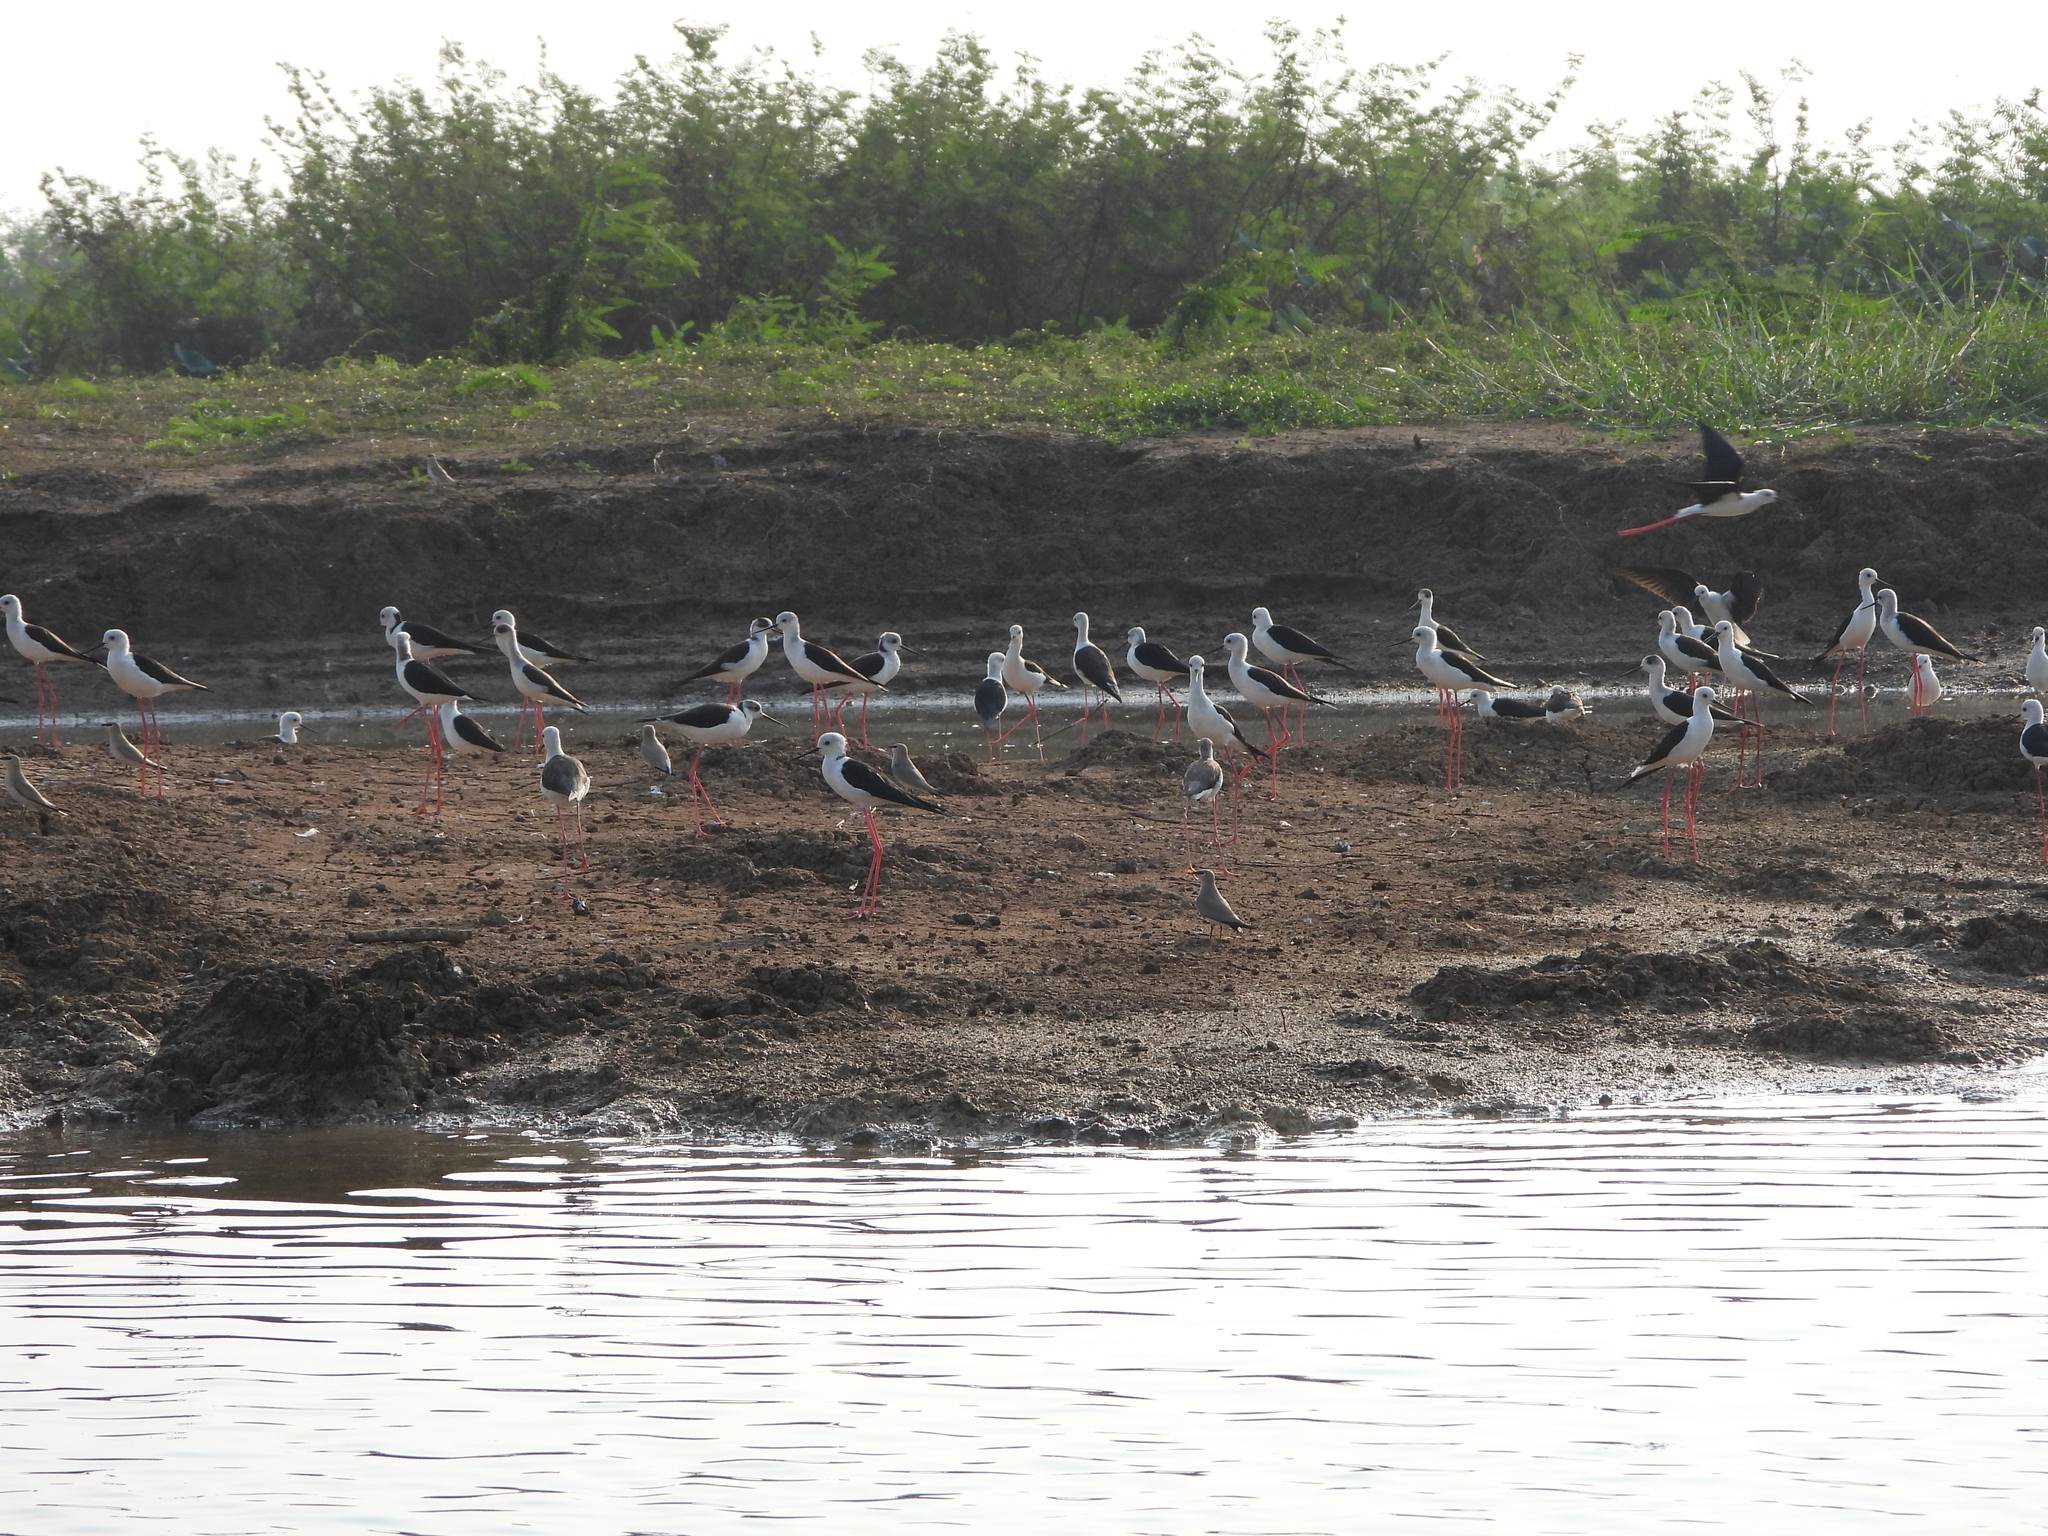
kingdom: Animalia
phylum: Chordata
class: Aves
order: Charadriiformes
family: Recurvirostridae
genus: Himantopus
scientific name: Himantopus himantopus
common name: Black-winged stilt
